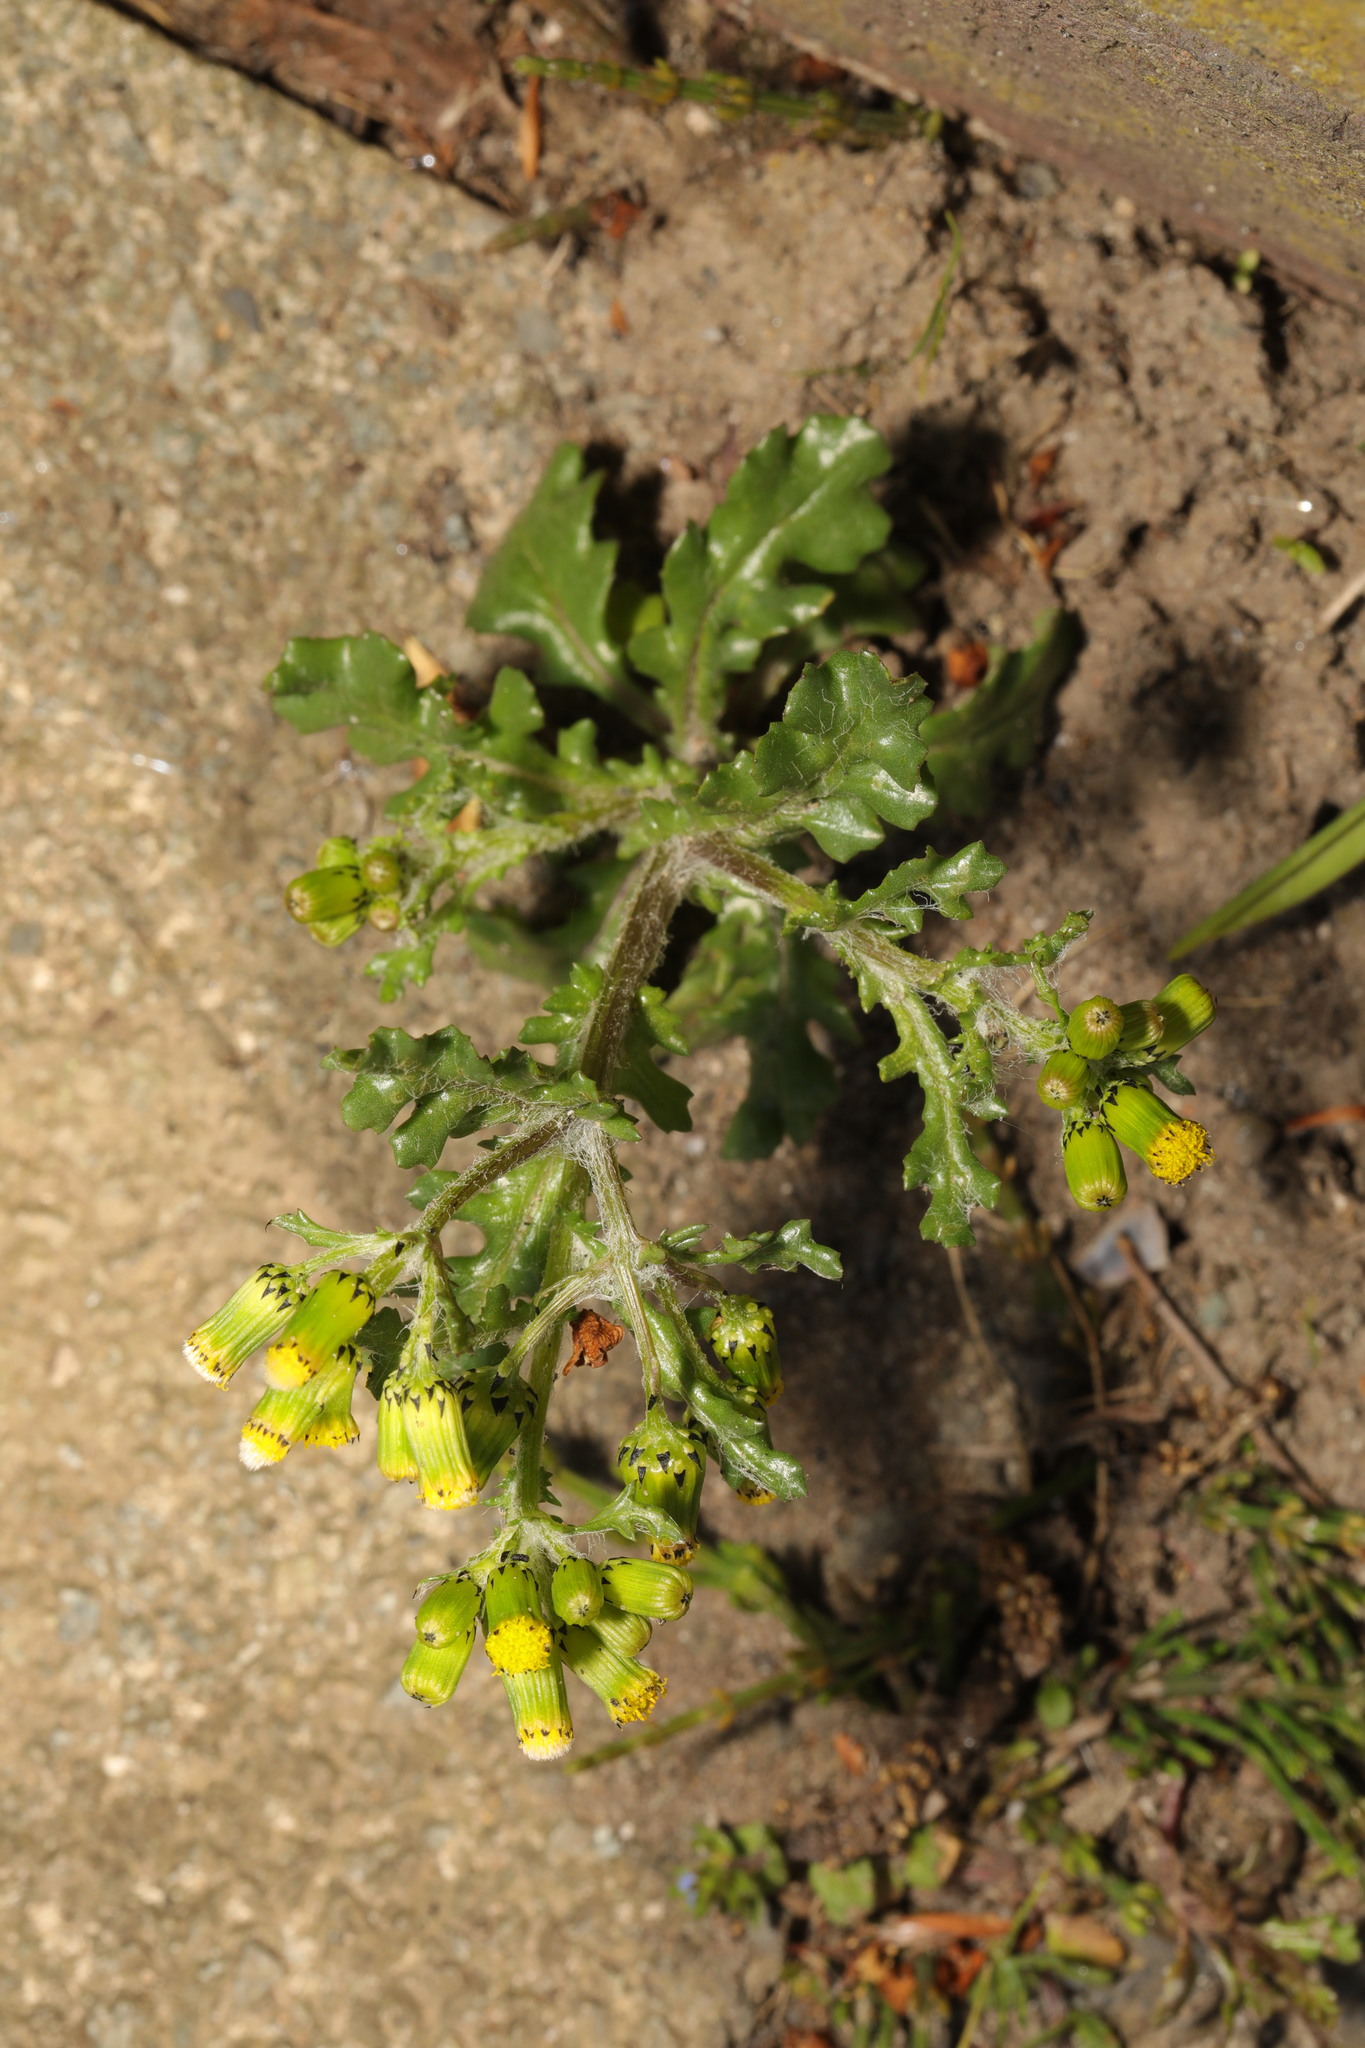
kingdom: Plantae
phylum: Tracheophyta
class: Magnoliopsida
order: Asterales
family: Asteraceae
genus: Senecio
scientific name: Senecio vulgaris
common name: Old-man-in-the-spring
